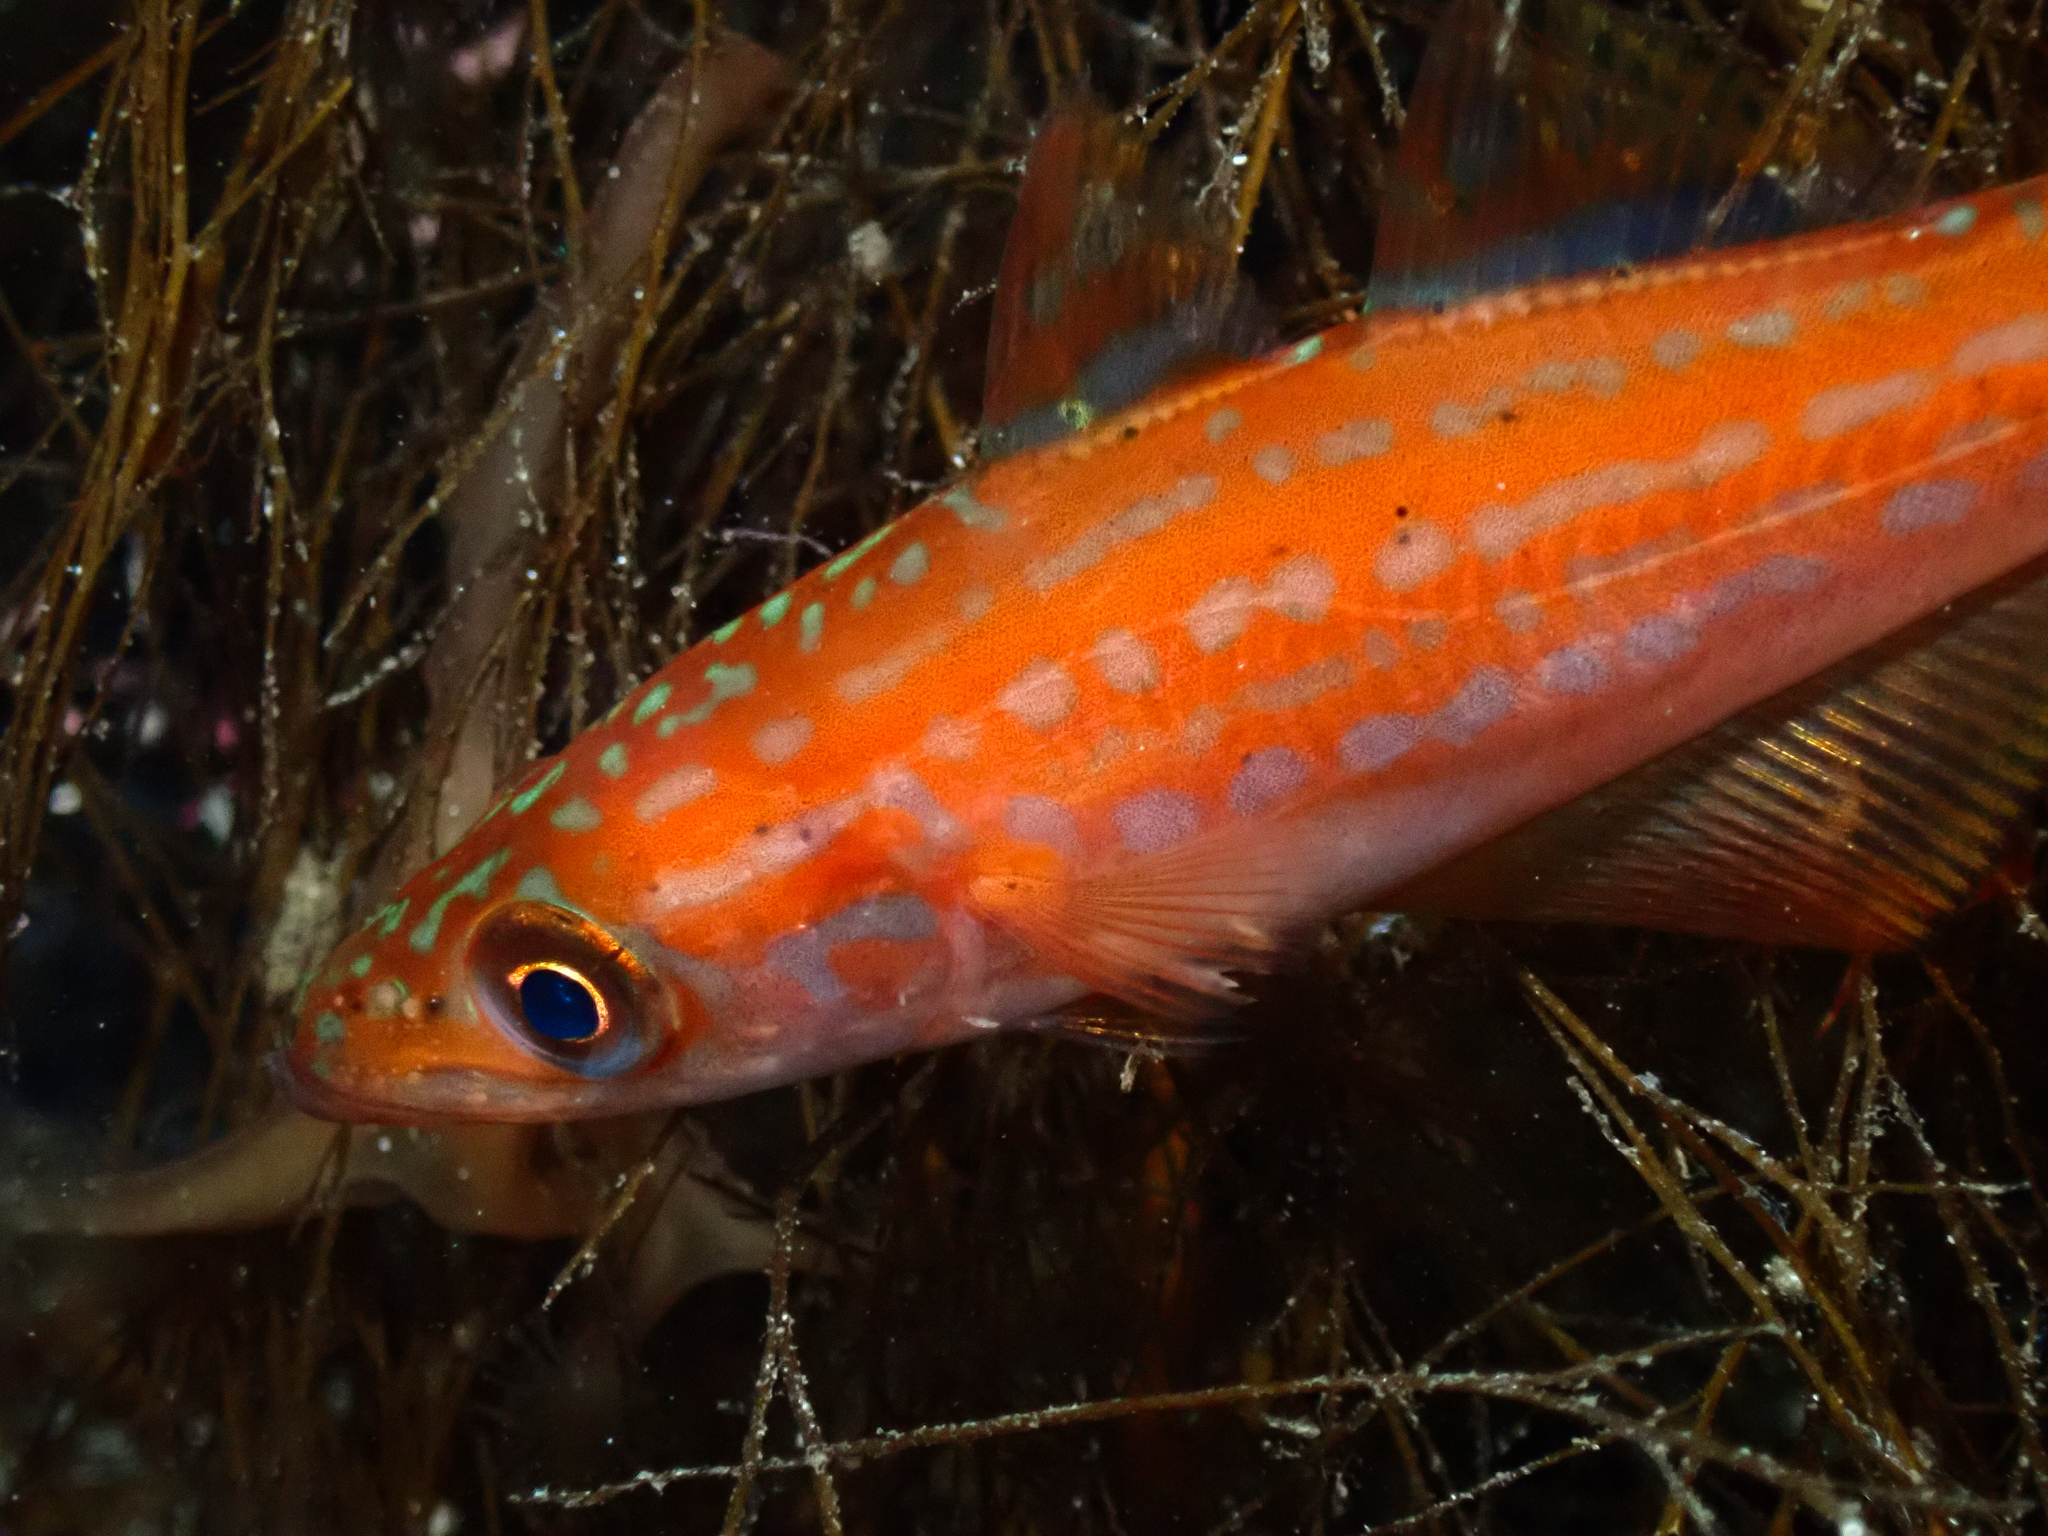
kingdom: Animalia
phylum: Chordata
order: Gadiformes
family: Gadidae
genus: Pollachius
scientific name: Pollachius pollachius
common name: Pollack
